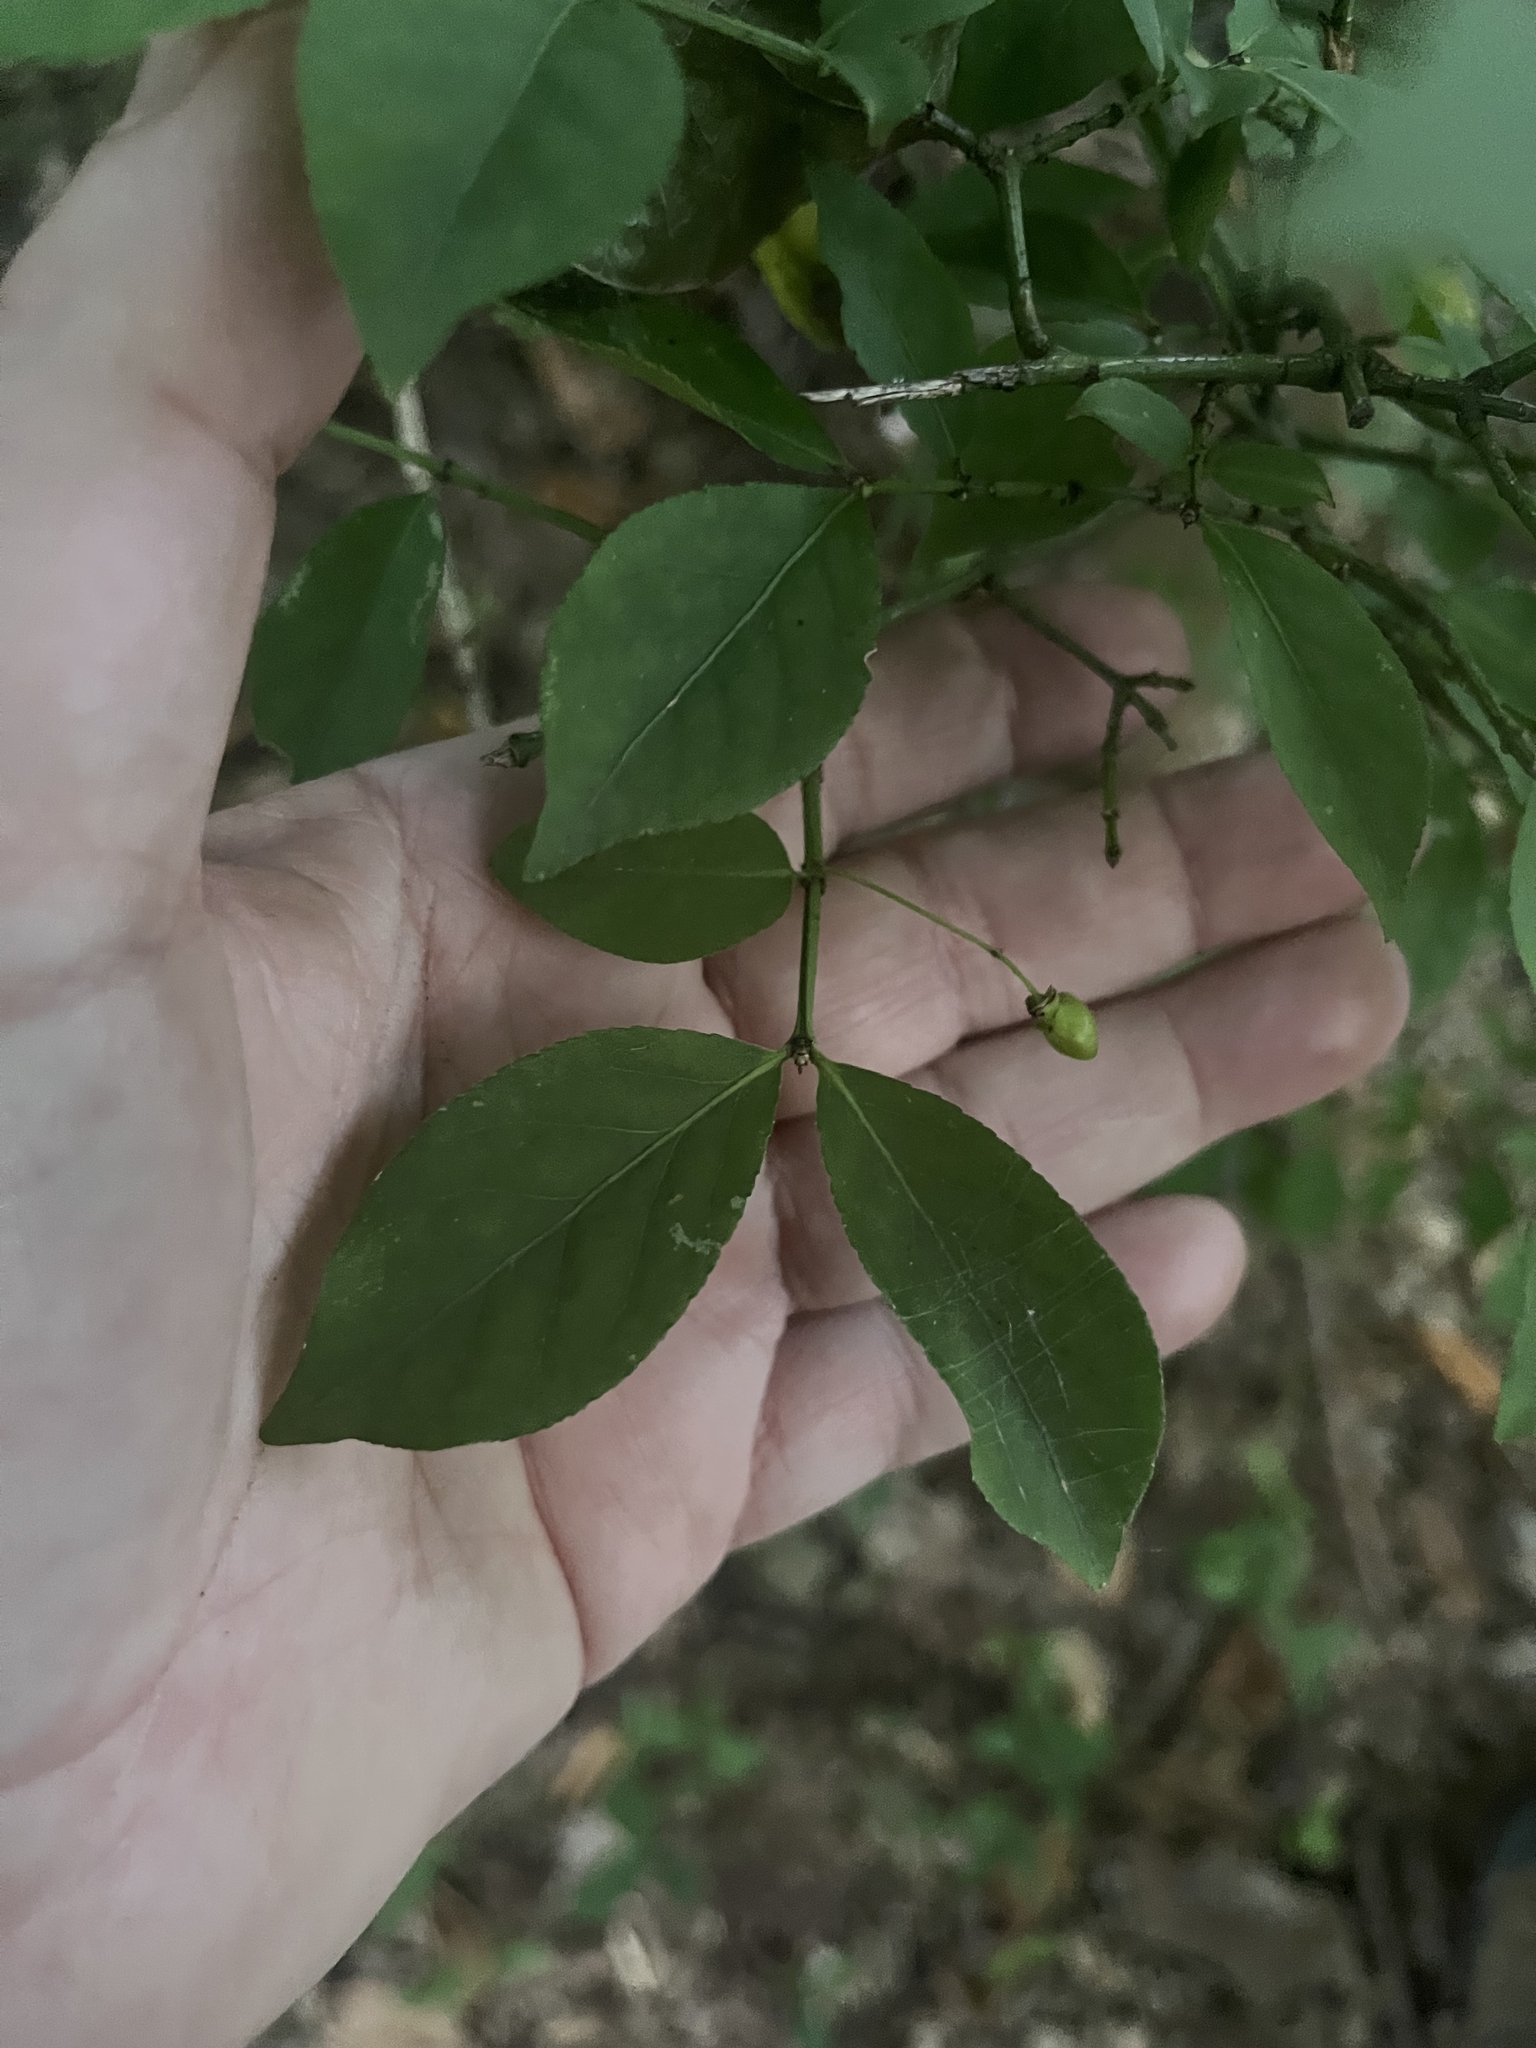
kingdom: Plantae
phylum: Tracheophyta
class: Magnoliopsida
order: Celastrales
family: Celastraceae
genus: Euonymus
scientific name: Euonymus alatus
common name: Winged euonymus
